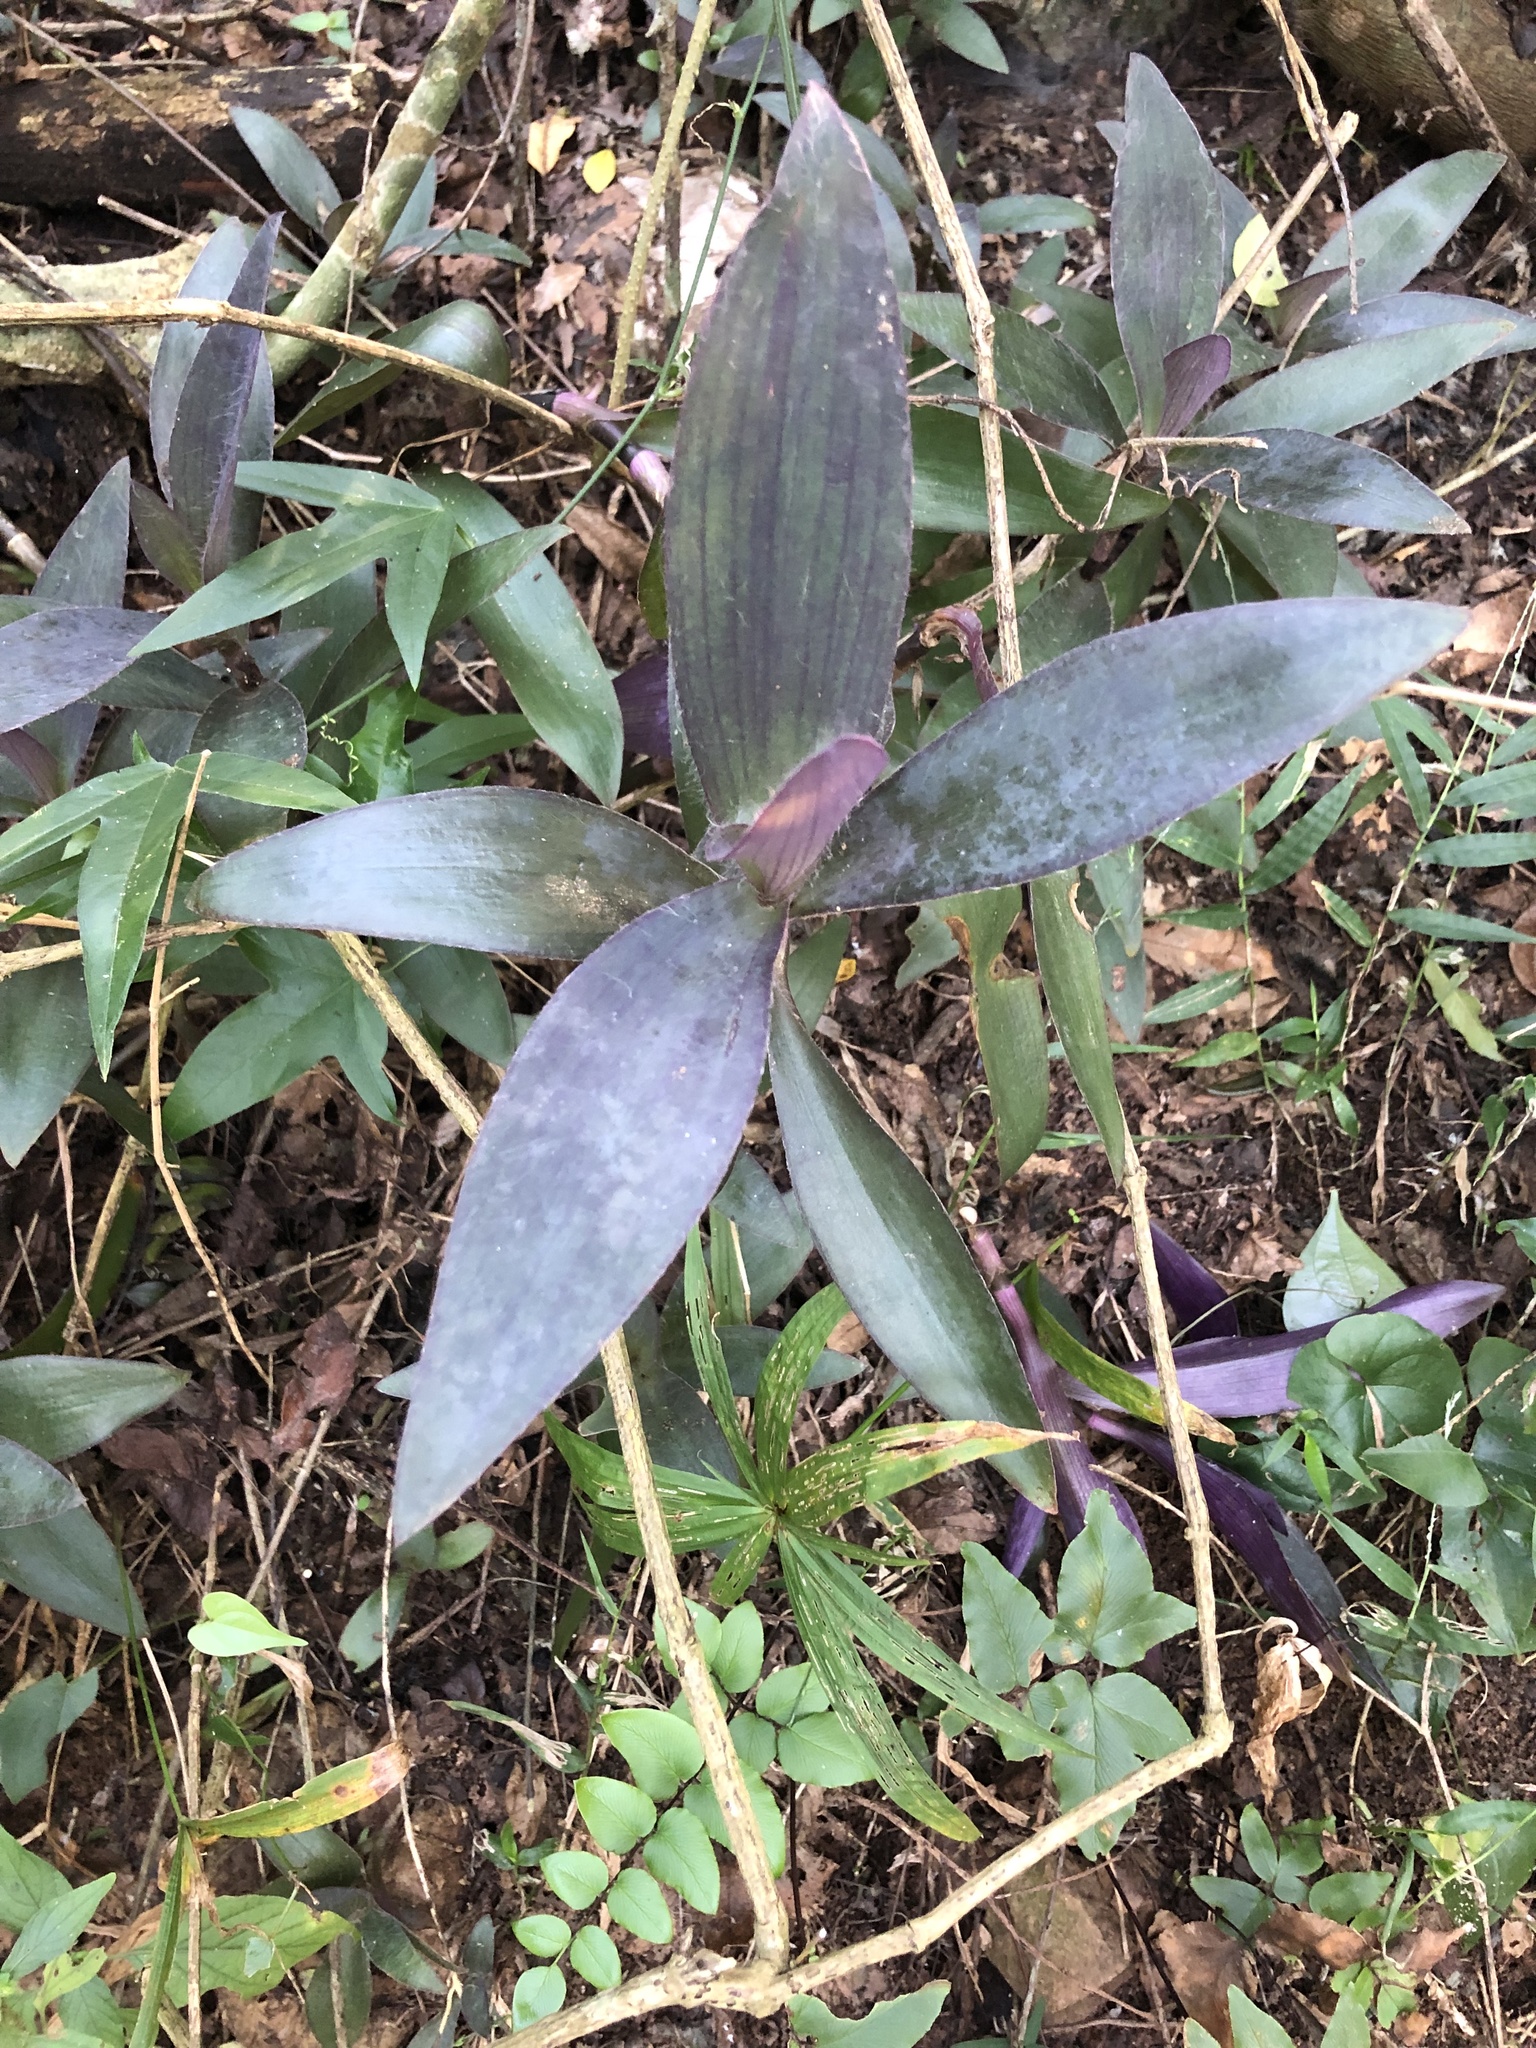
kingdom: Plantae
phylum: Tracheophyta
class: Liliopsida
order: Commelinales
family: Commelinaceae
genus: Tradescantia
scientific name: Tradescantia pallida
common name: Purpleheart
